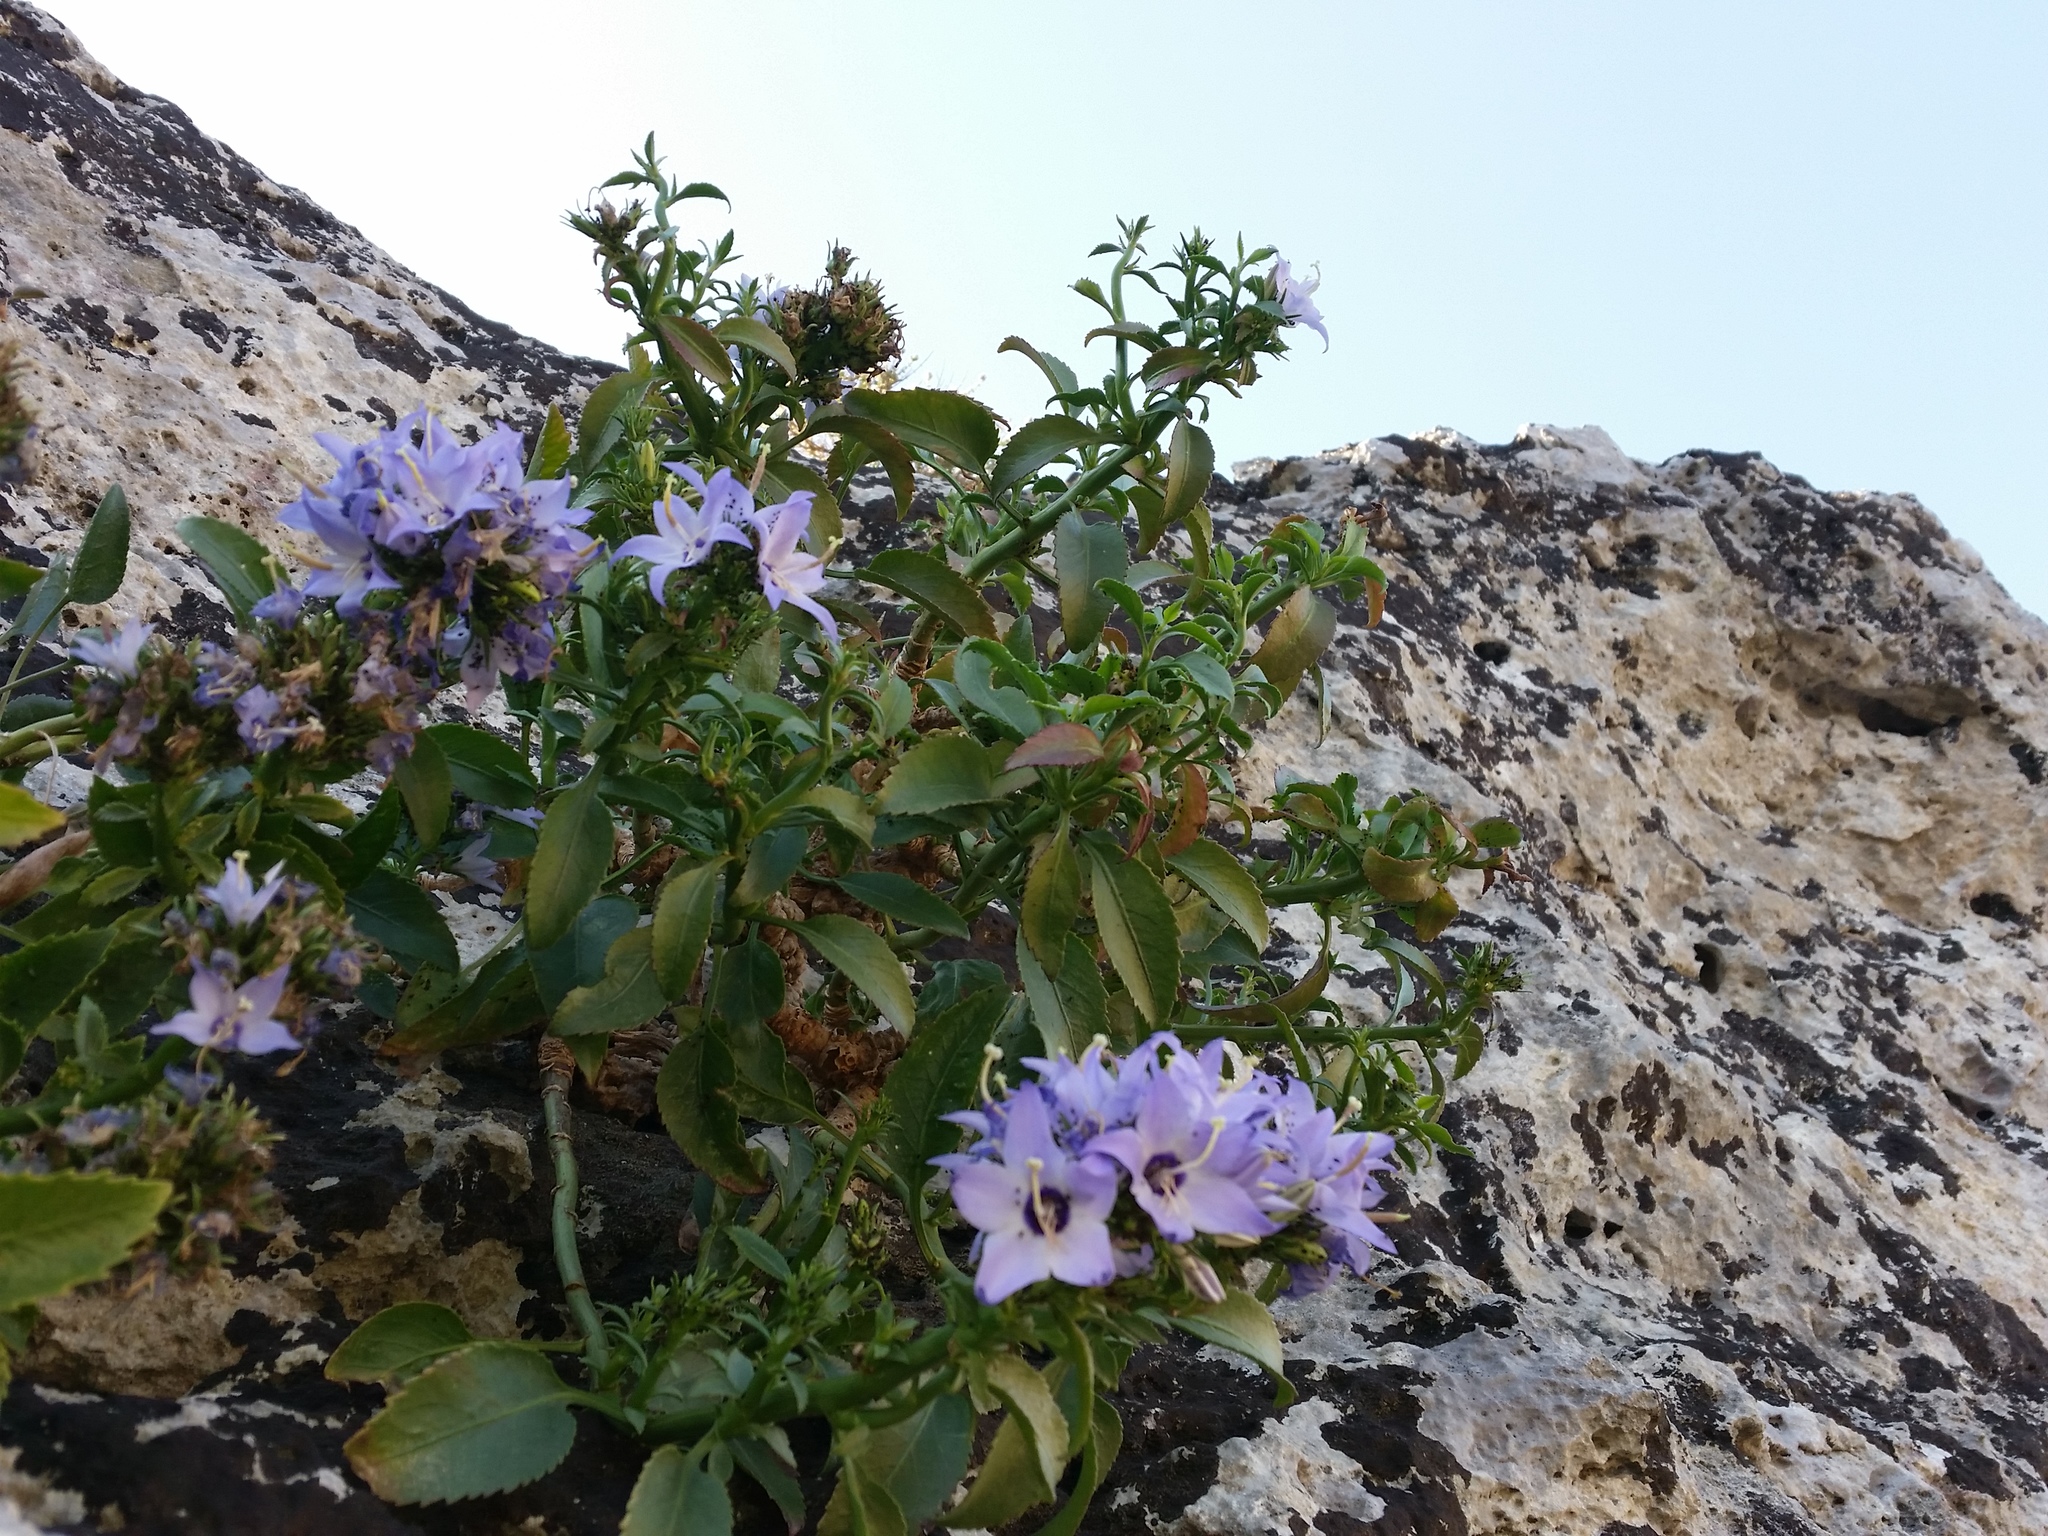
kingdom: Plantae
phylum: Tracheophyta
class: Magnoliopsida
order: Asterales
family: Campanulaceae
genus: Campanula
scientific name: Campanula versicolor
